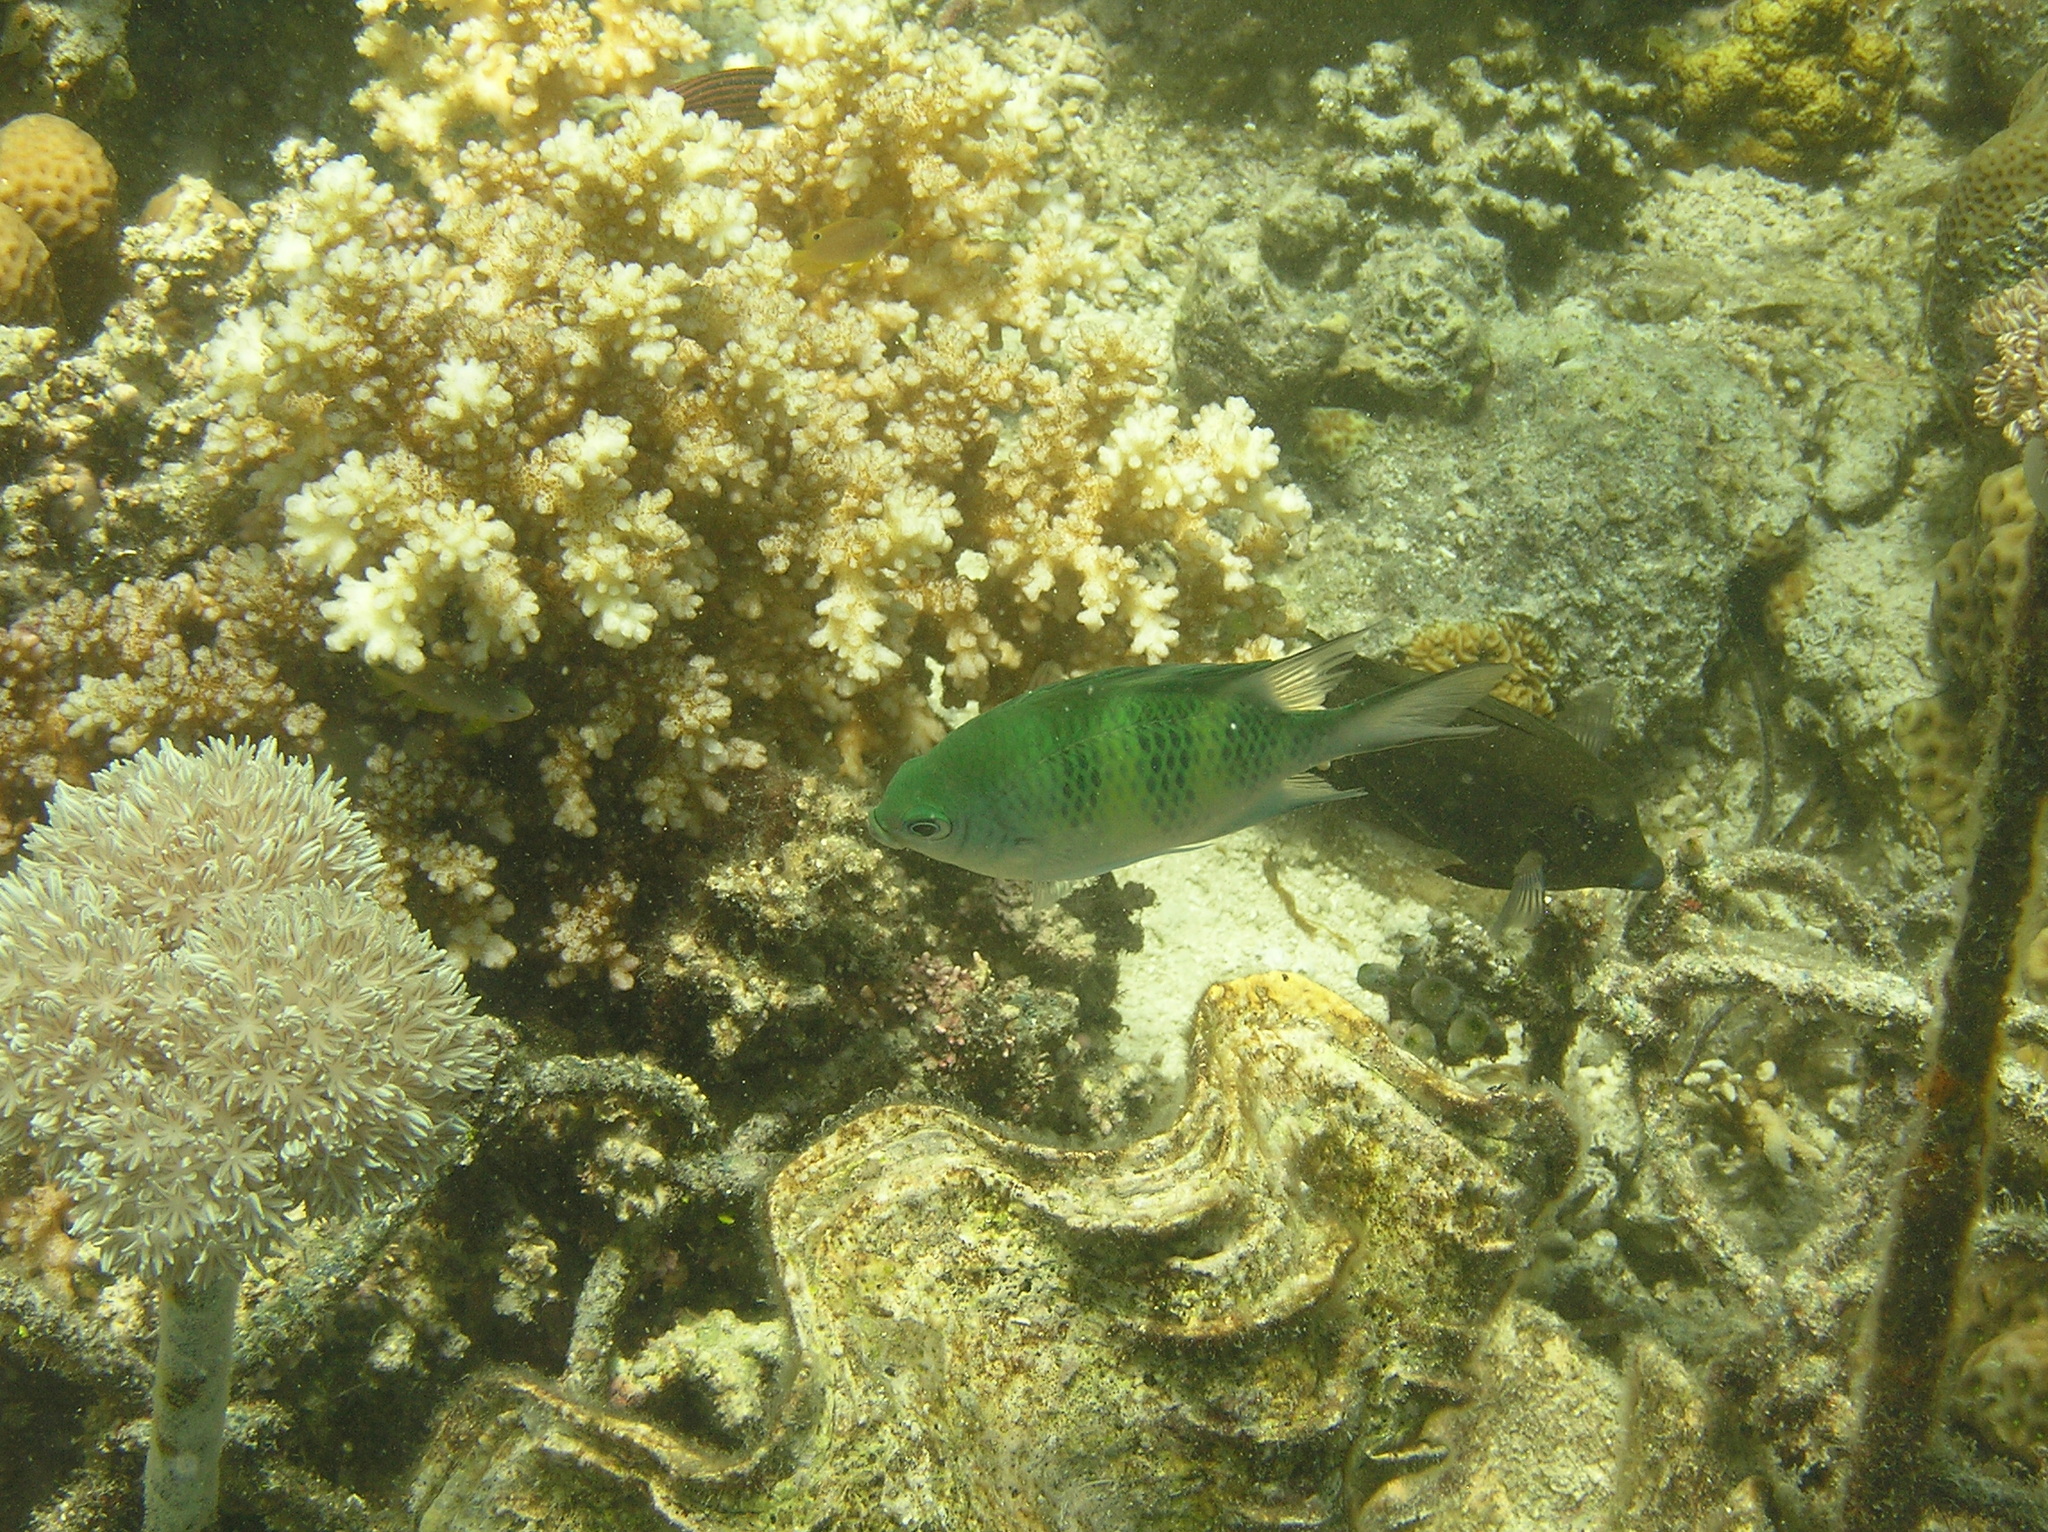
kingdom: Animalia
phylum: Chordata
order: Perciformes
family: Pomacentridae
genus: Amblyglyphidodon
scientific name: Amblyglyphidodon curacao
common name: Staghorn damsel
